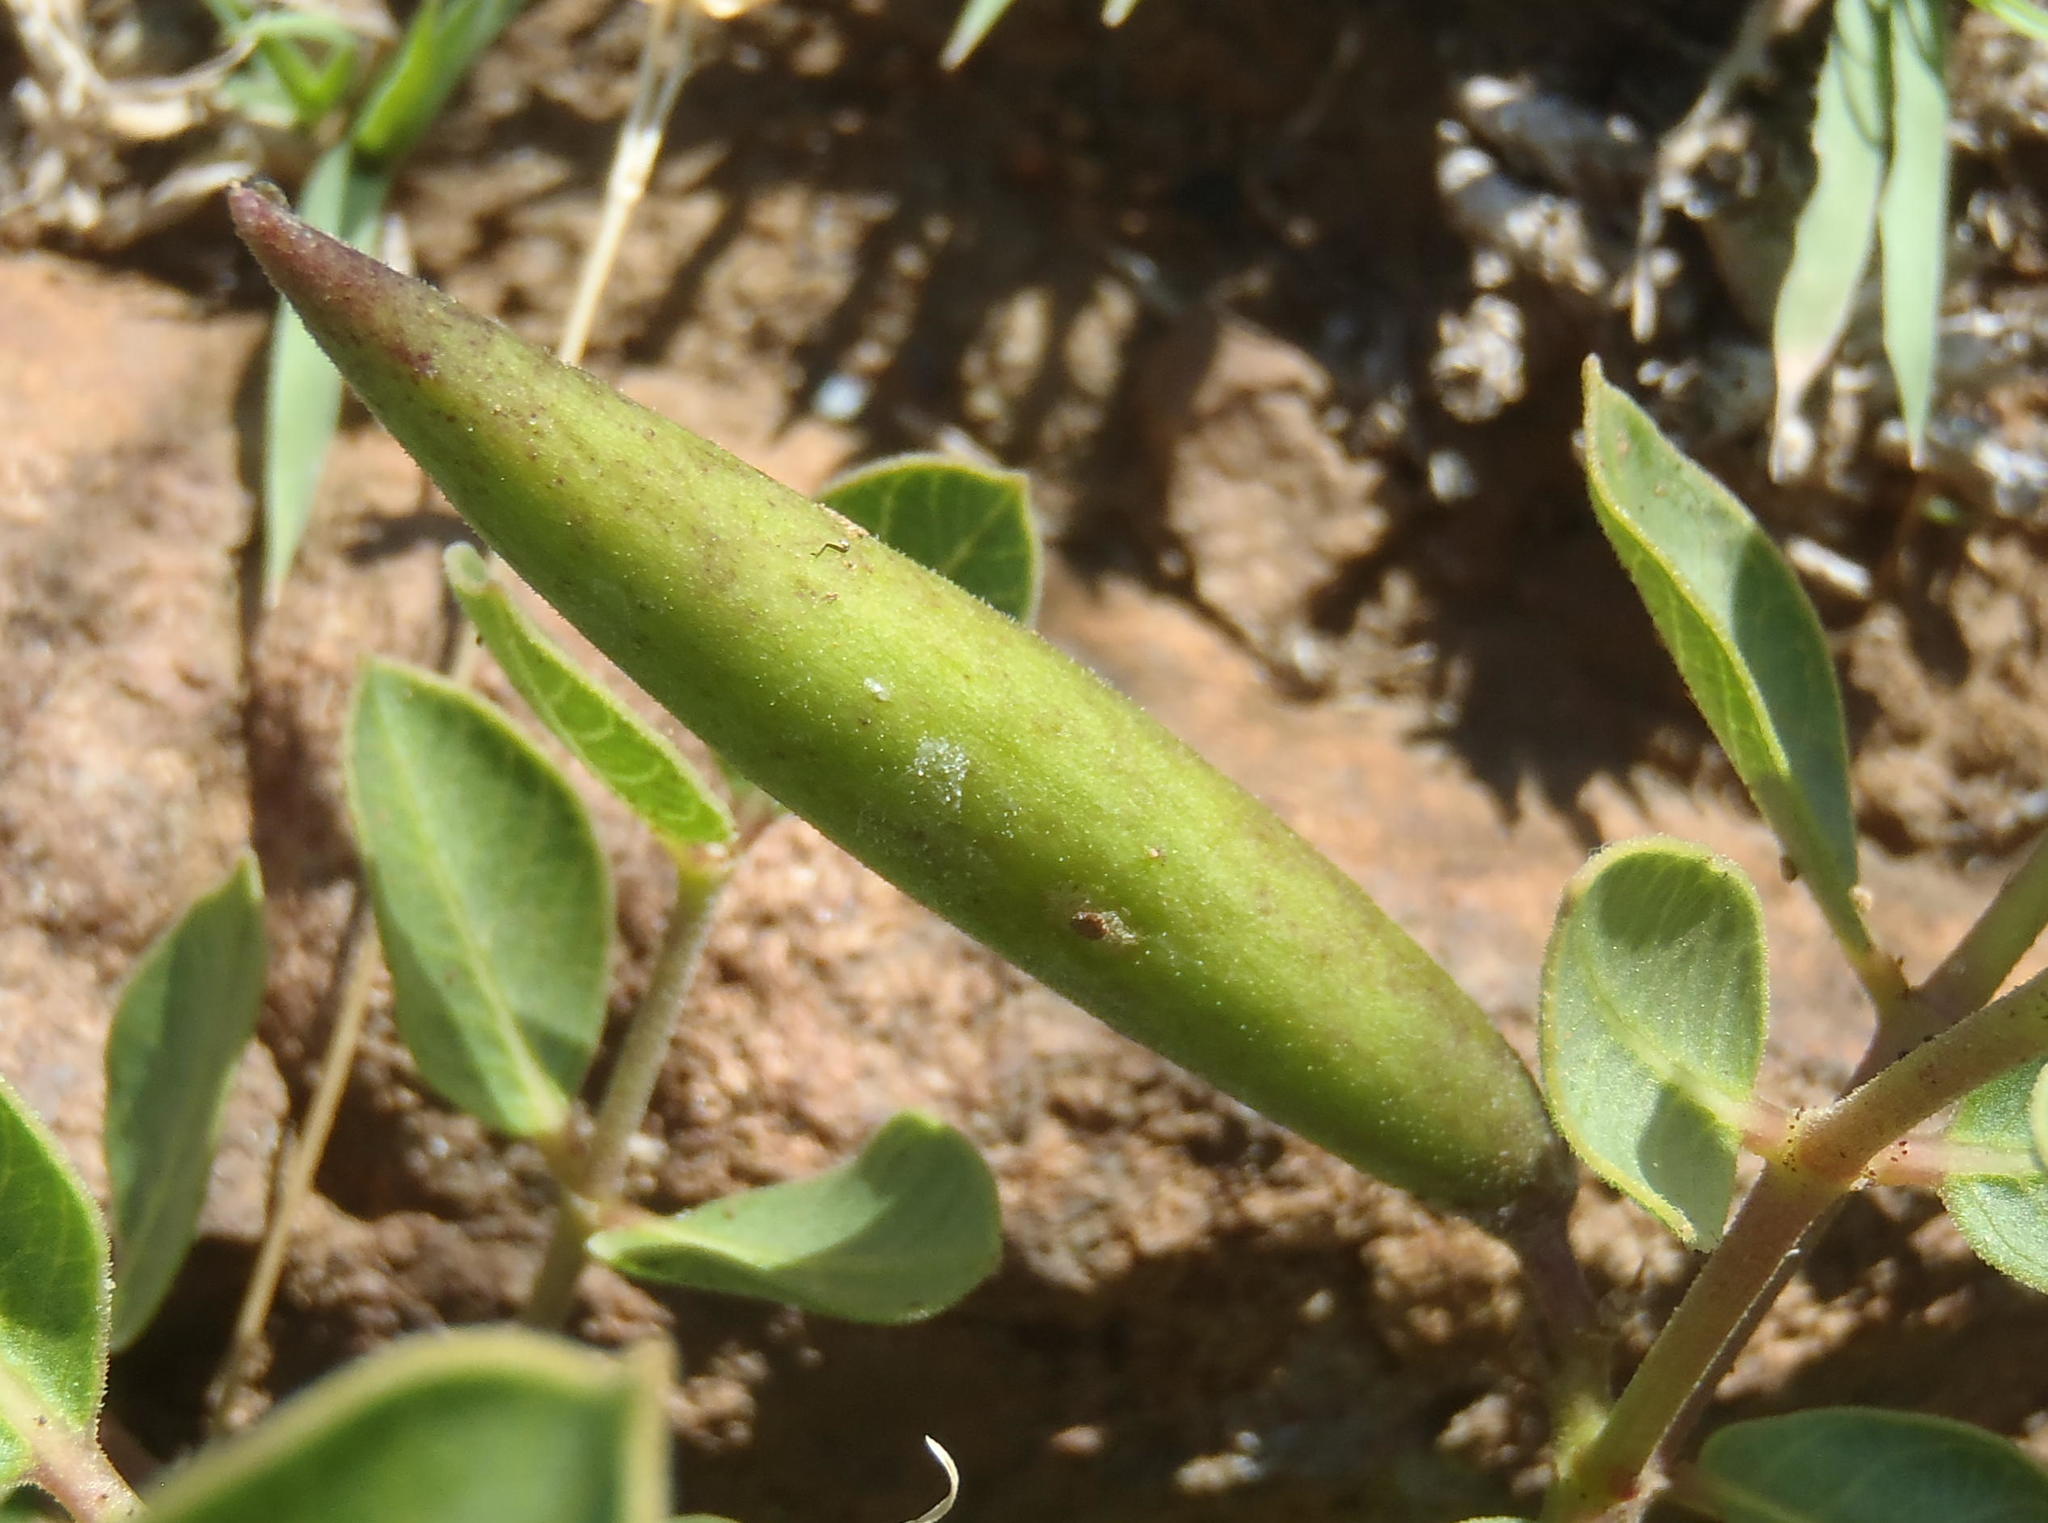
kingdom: Plantae
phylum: Tracheophyta
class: Magnoliopsida
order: Gentianales
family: Apocynaceae
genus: Raphionacme
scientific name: Raphionacme hirsuta
